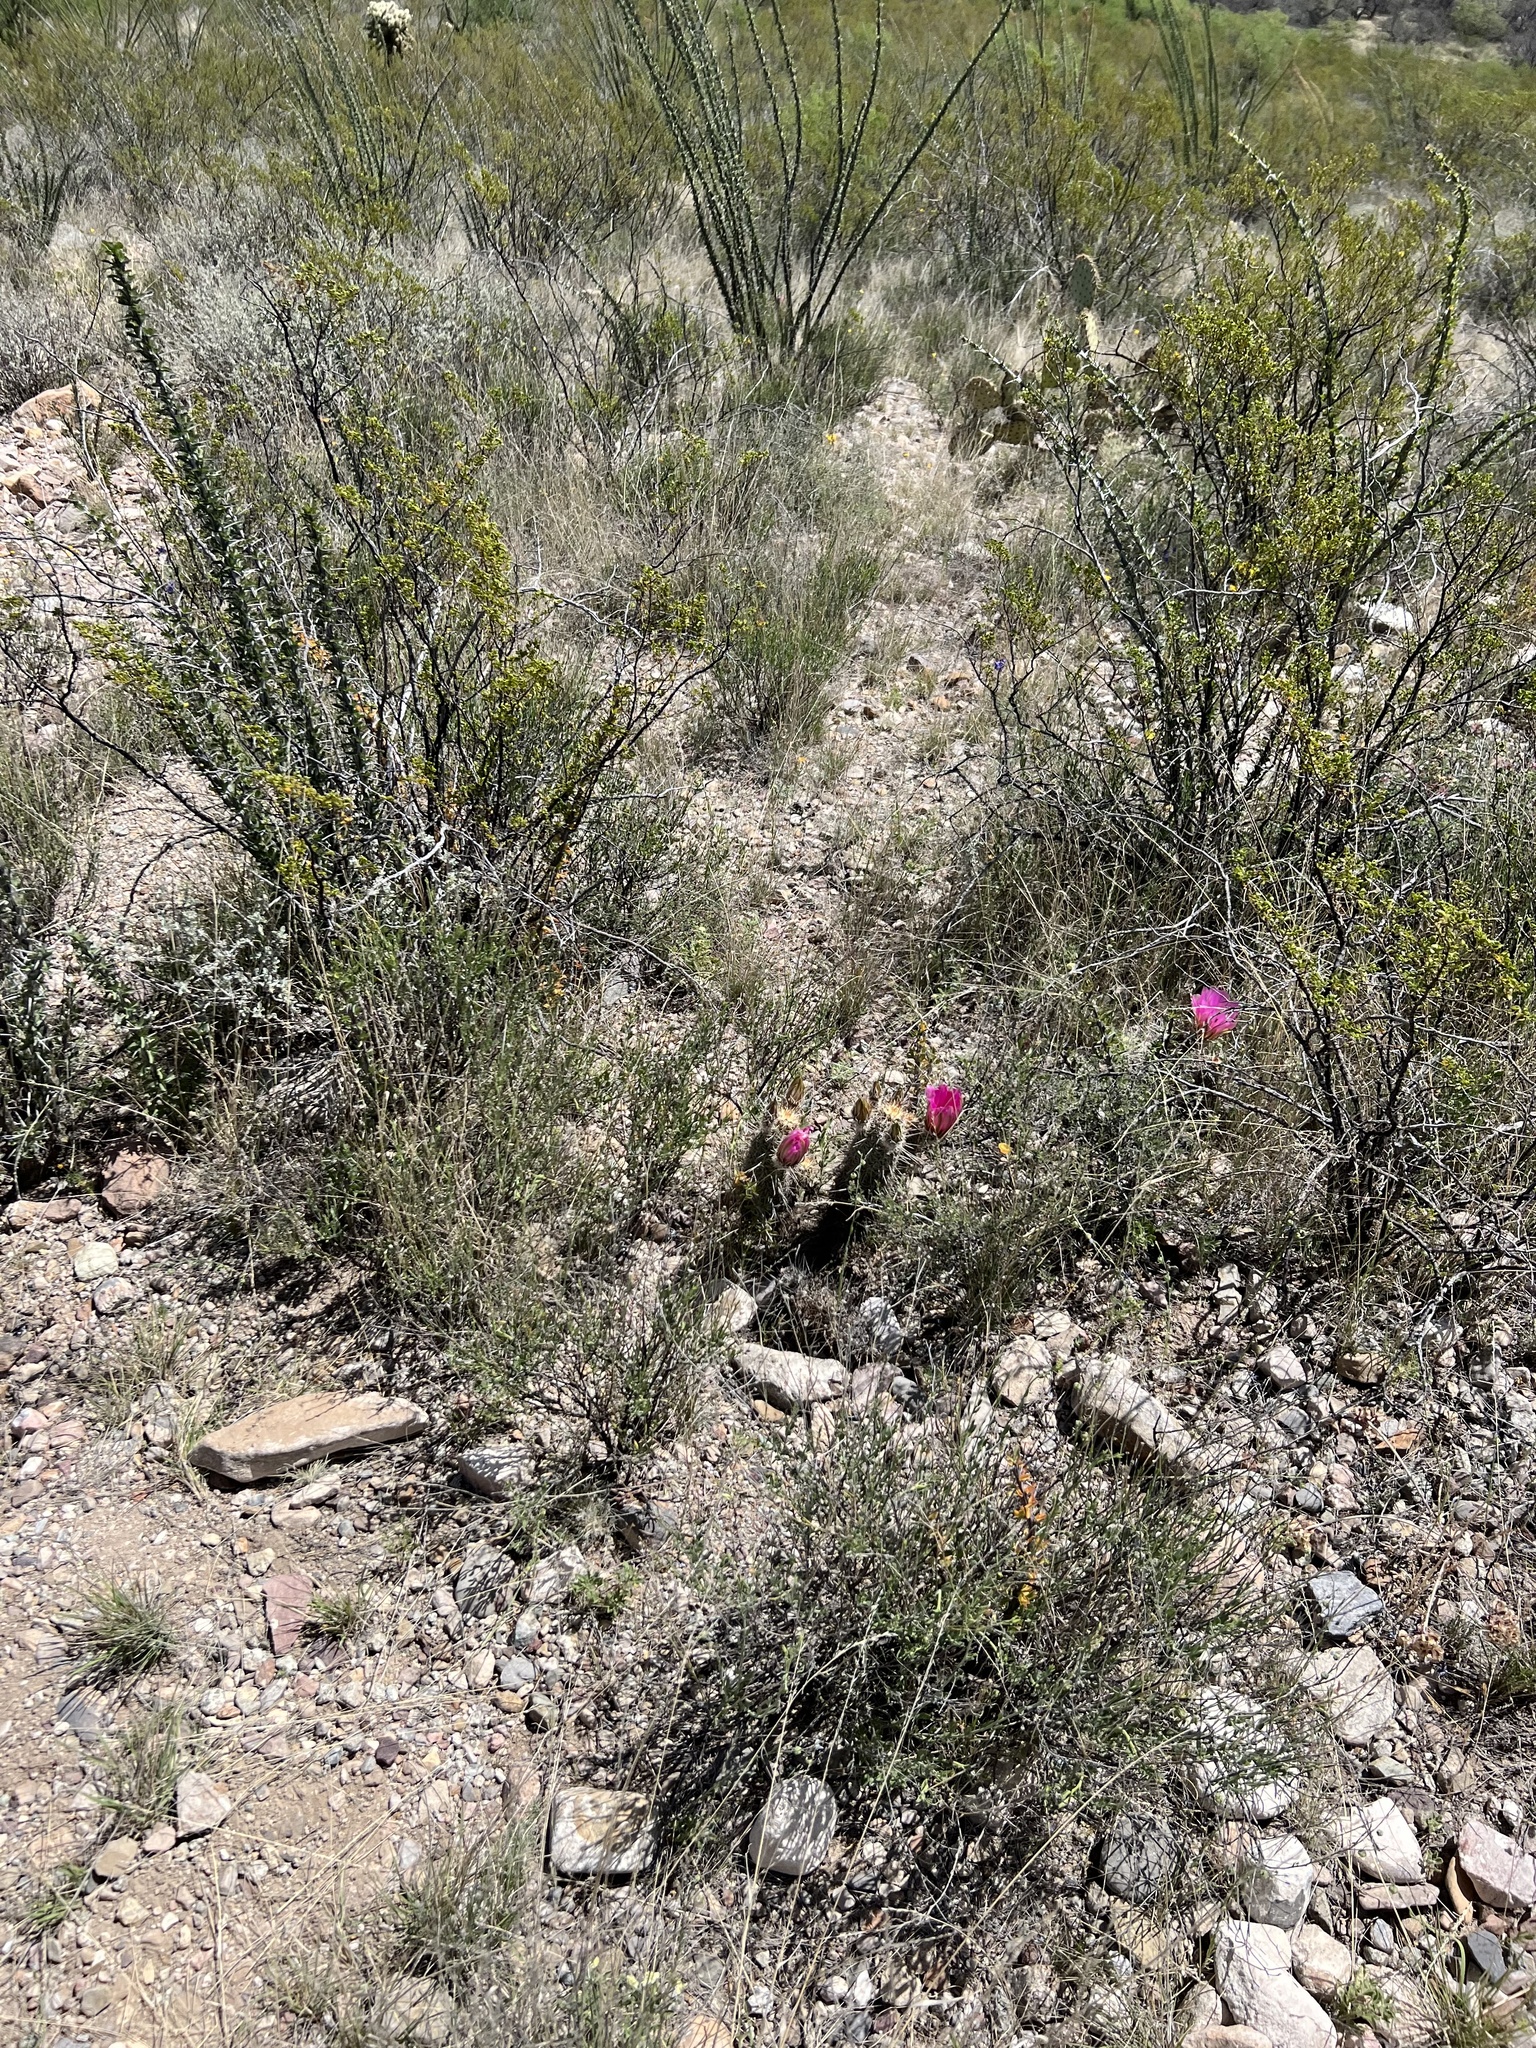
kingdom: Plantae
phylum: Tracheophyta
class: Magnoliopsida
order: Caryophyllales
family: Cactaceae
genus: Echinocereus
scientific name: Echinocereus fasciculatus
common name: Bundle hedgehog
